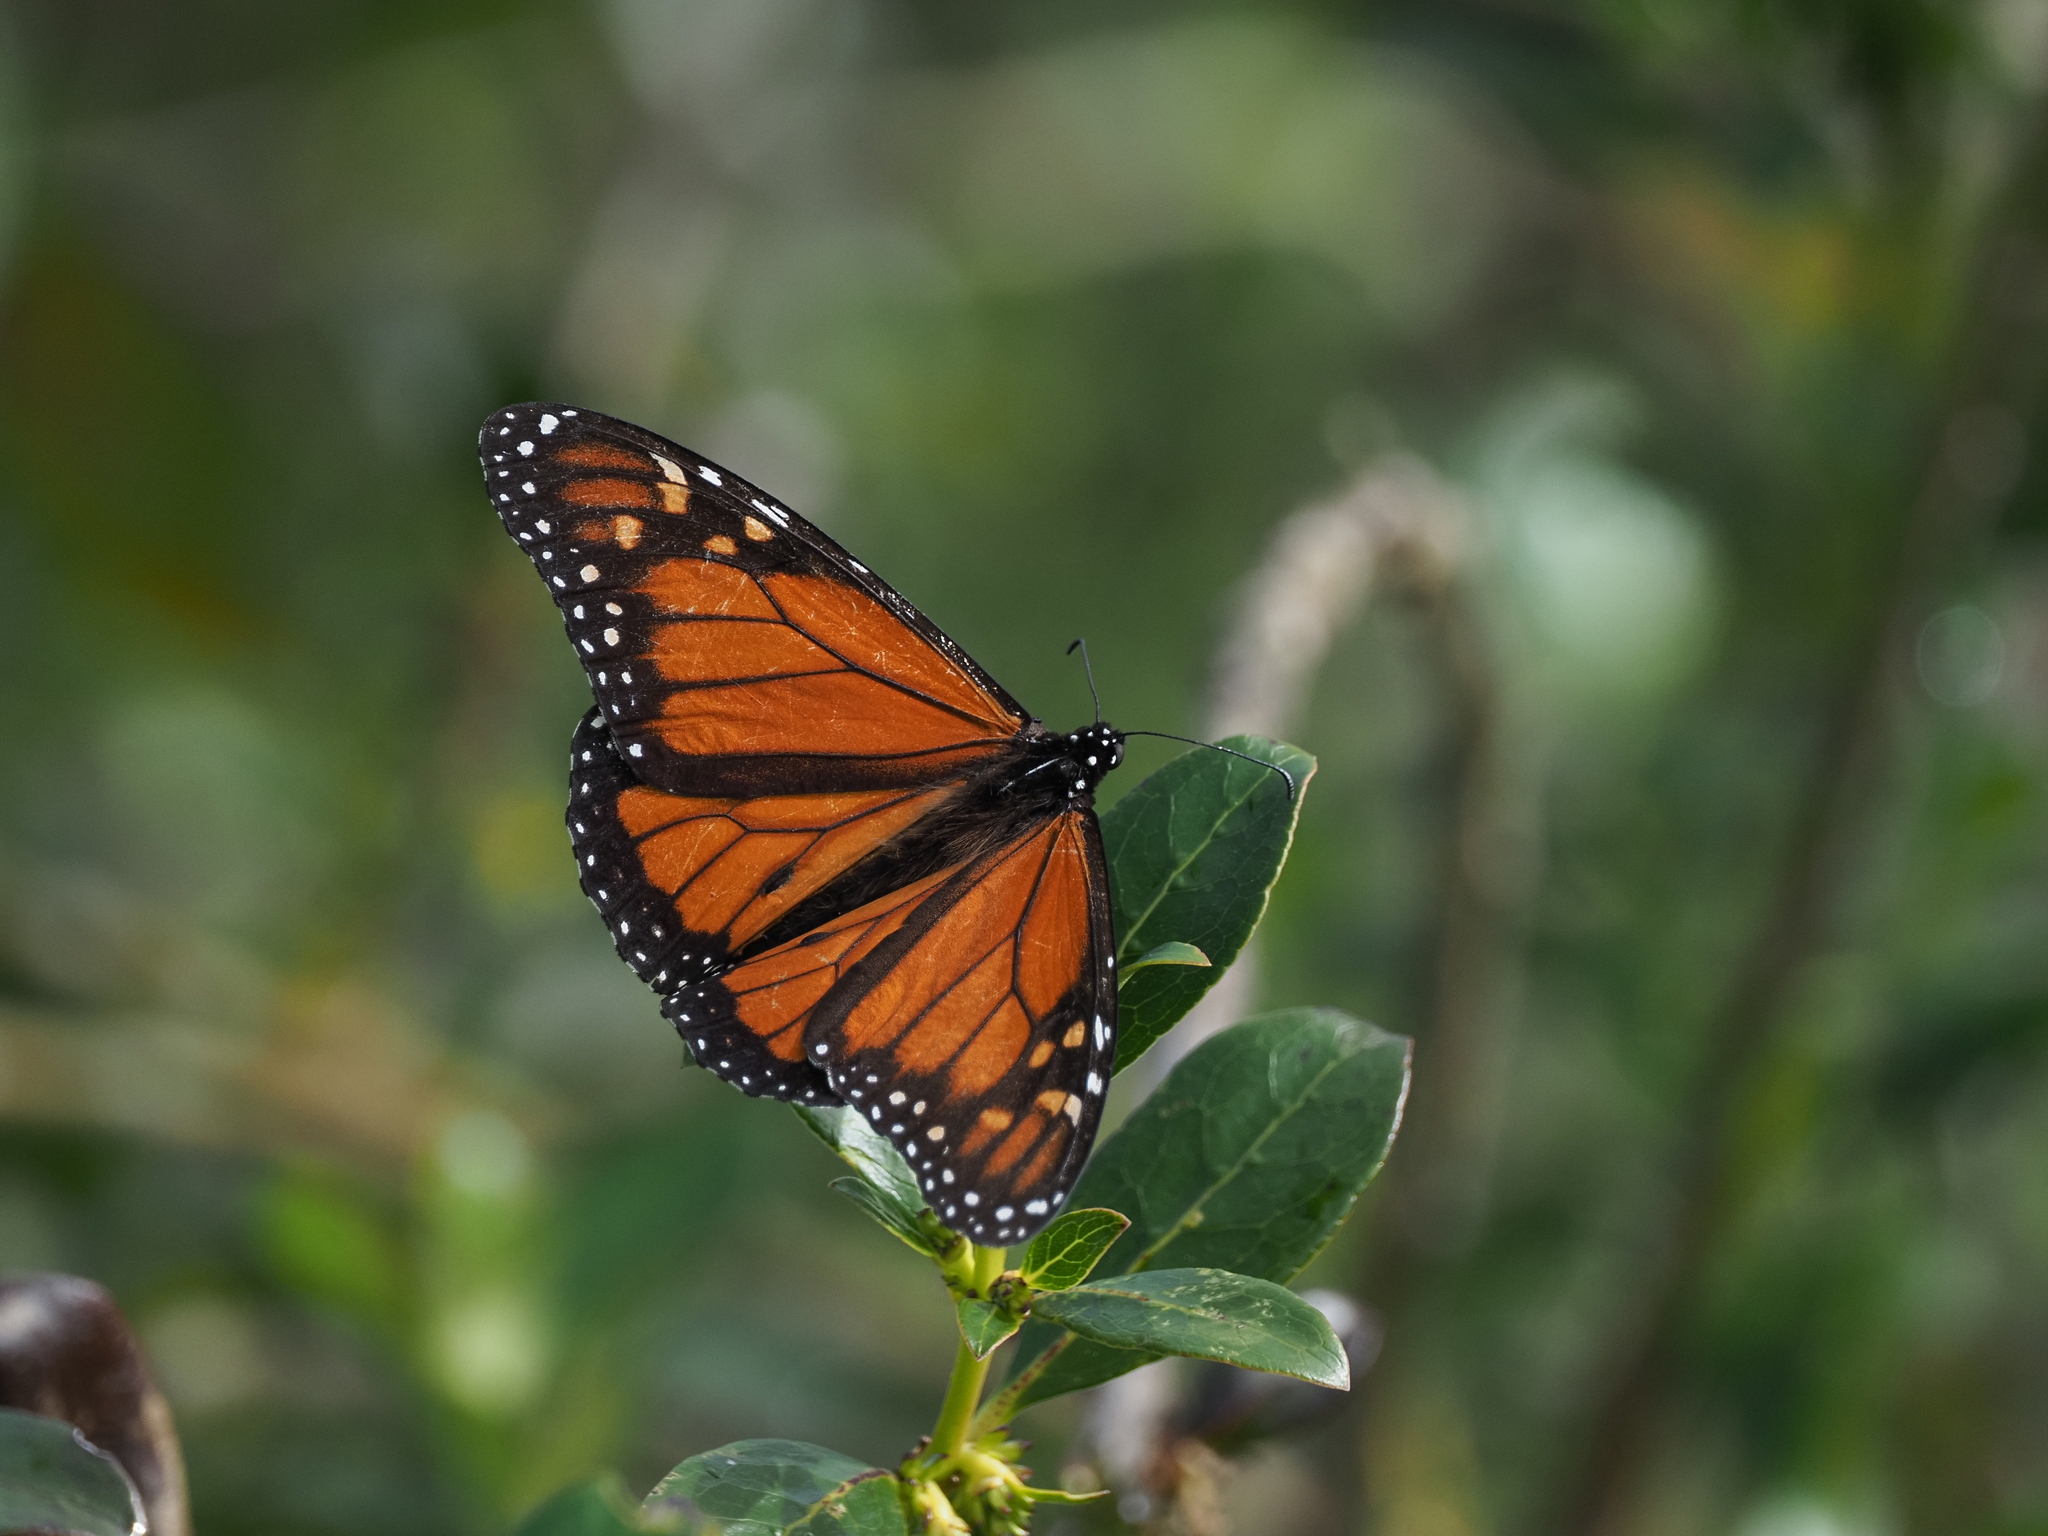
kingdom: Animalia
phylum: Arthropoda
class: Insecta
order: Lepidoptera
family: Nymphalidae
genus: Danaus
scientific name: Danaus plexippus
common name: Monarch
